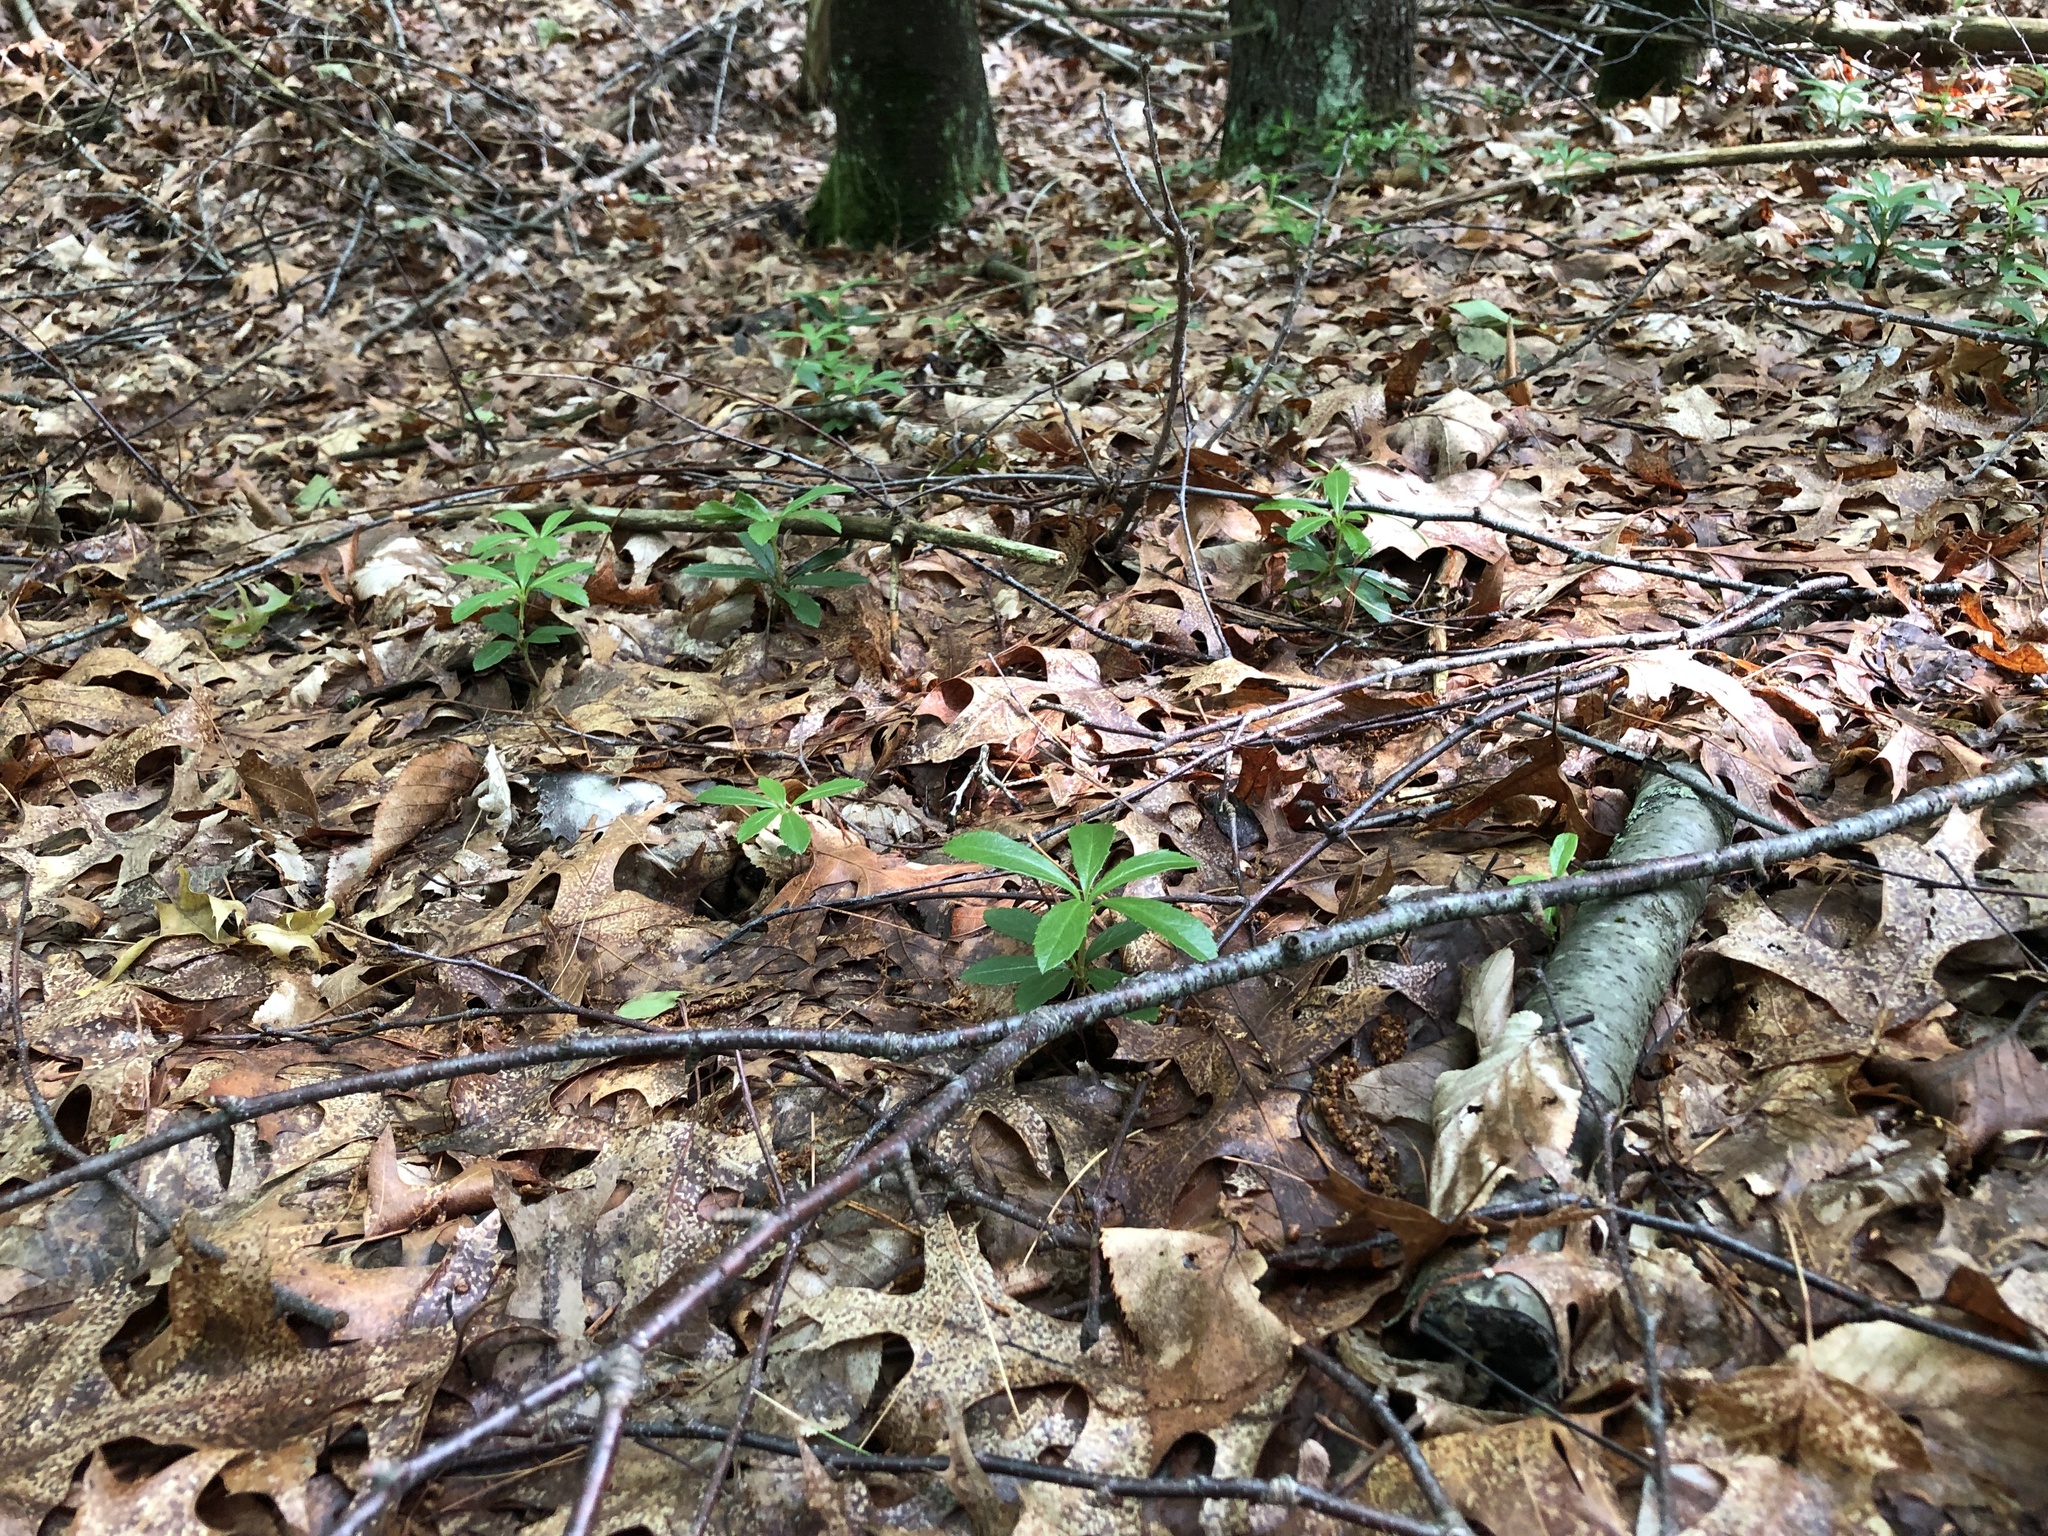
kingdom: Plantae
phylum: Tracheophyta
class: Magnoliopsida
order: Ericales
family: Ericaceae
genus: Chimaphila
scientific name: Chimaphila umbellata
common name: Pipsissewa
